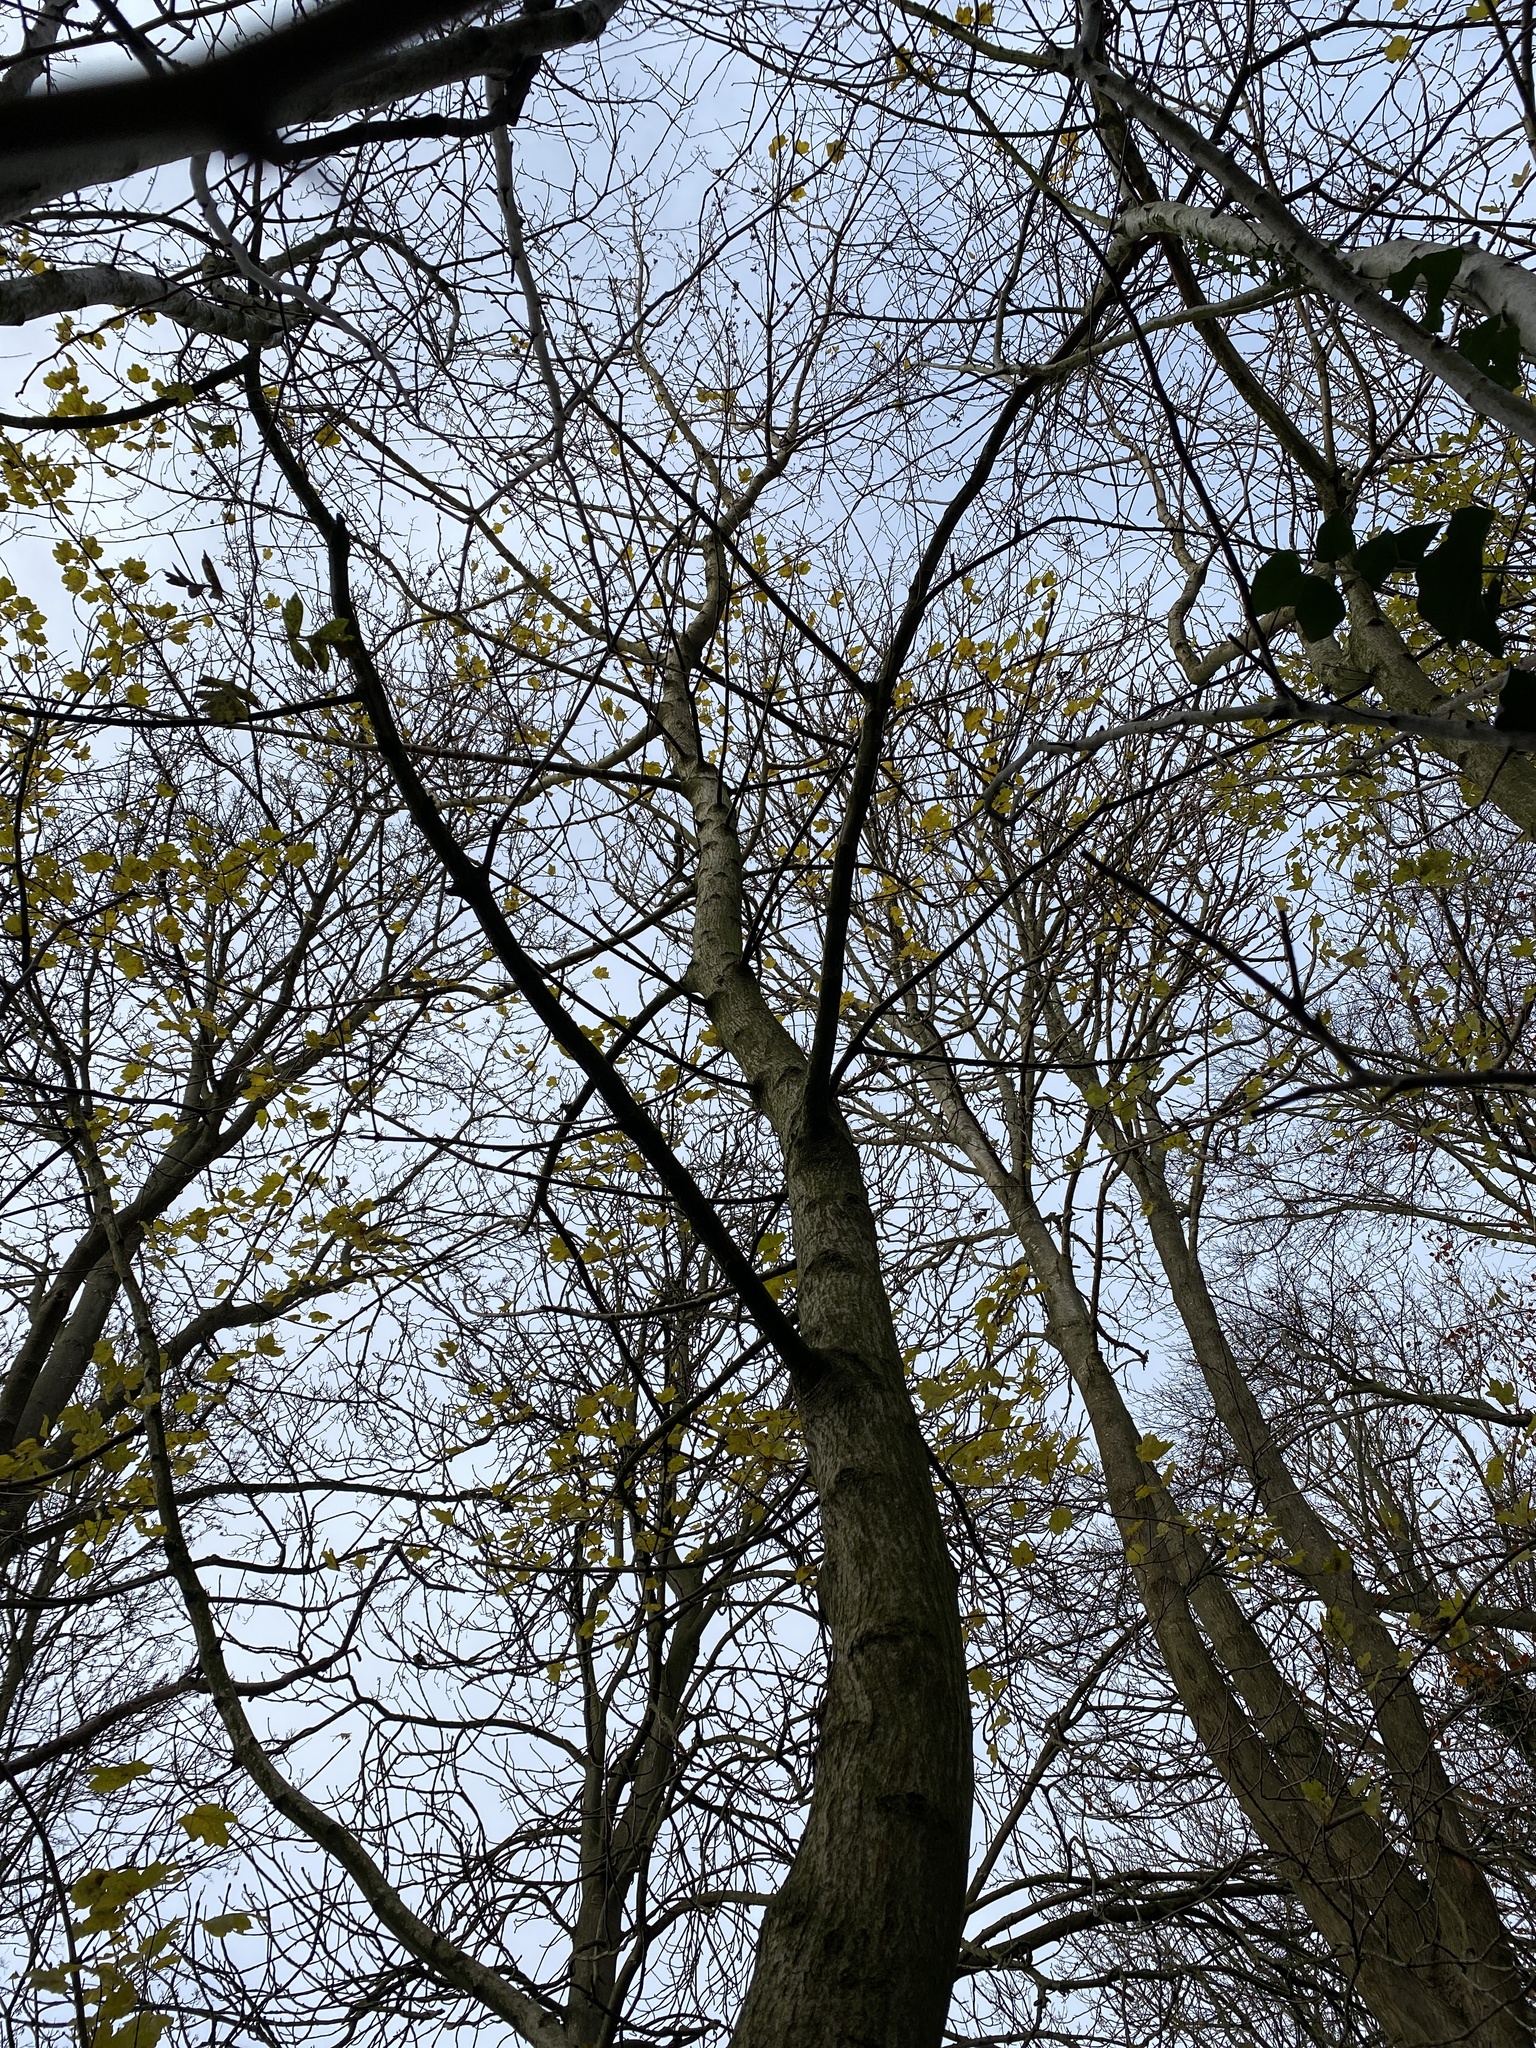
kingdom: Plantae
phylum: Tracheophyta
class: Magnoliopsida
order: Sapindales
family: Sapindaceae
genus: Acer
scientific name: Acer campestre
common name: Field maple
